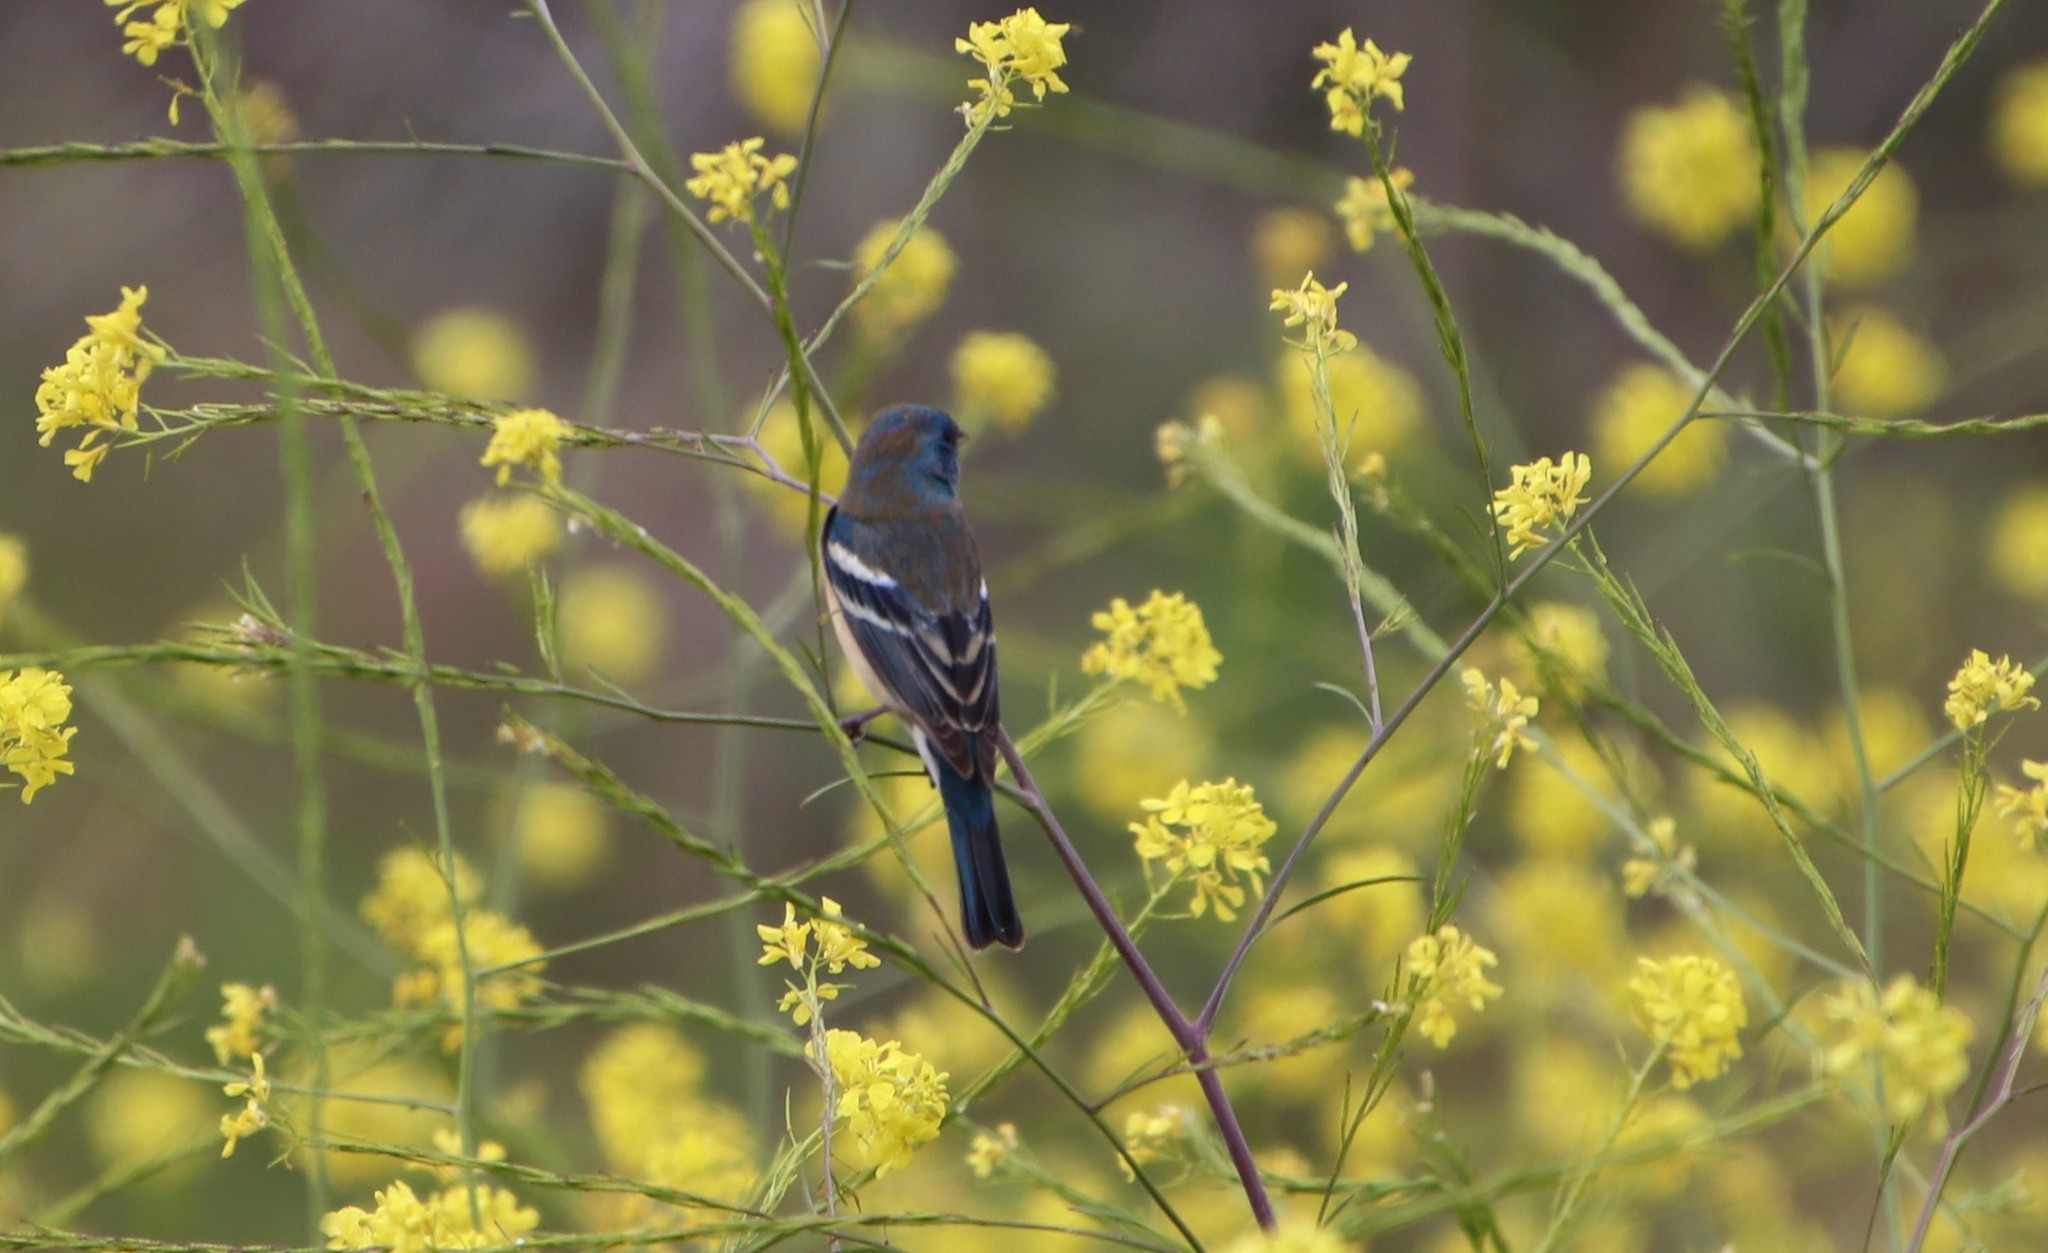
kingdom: Animalia
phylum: Chordata
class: Aves
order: Passeriformes
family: Cardinalidae
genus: Passerina
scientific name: Passerina amoena
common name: Lazuli bunting
